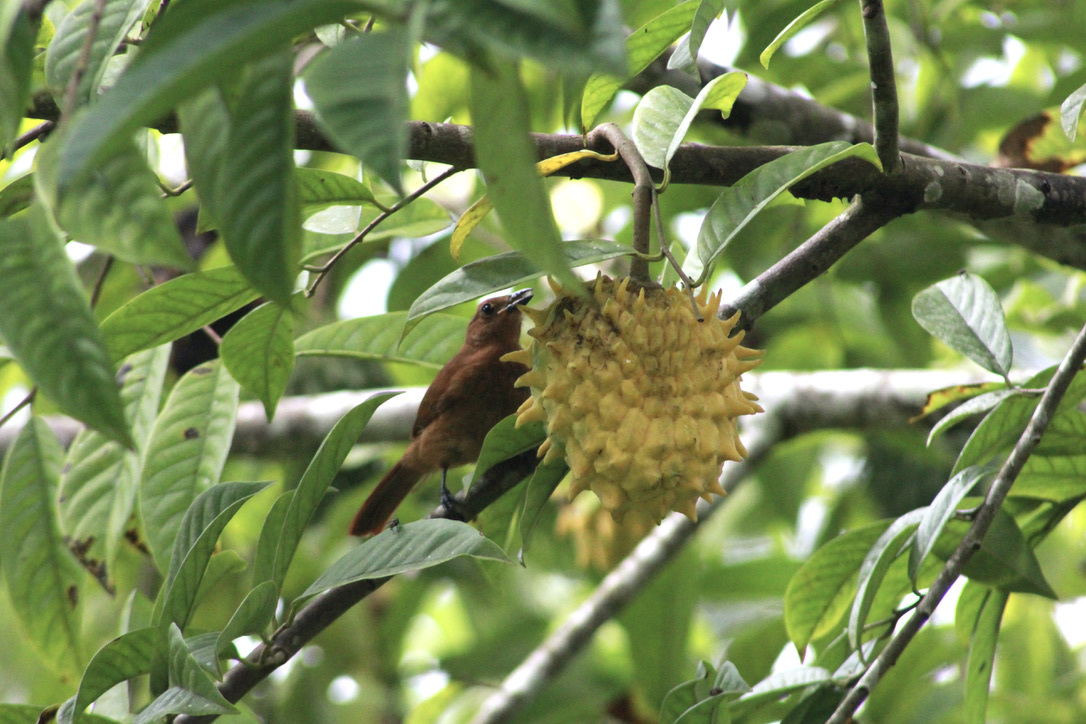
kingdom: Animalia
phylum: Chordata
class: Aves
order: Passeriformes
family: Thraupidae
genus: Tachyphonus
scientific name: Tachyphonus rufus
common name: White-lined tanager
